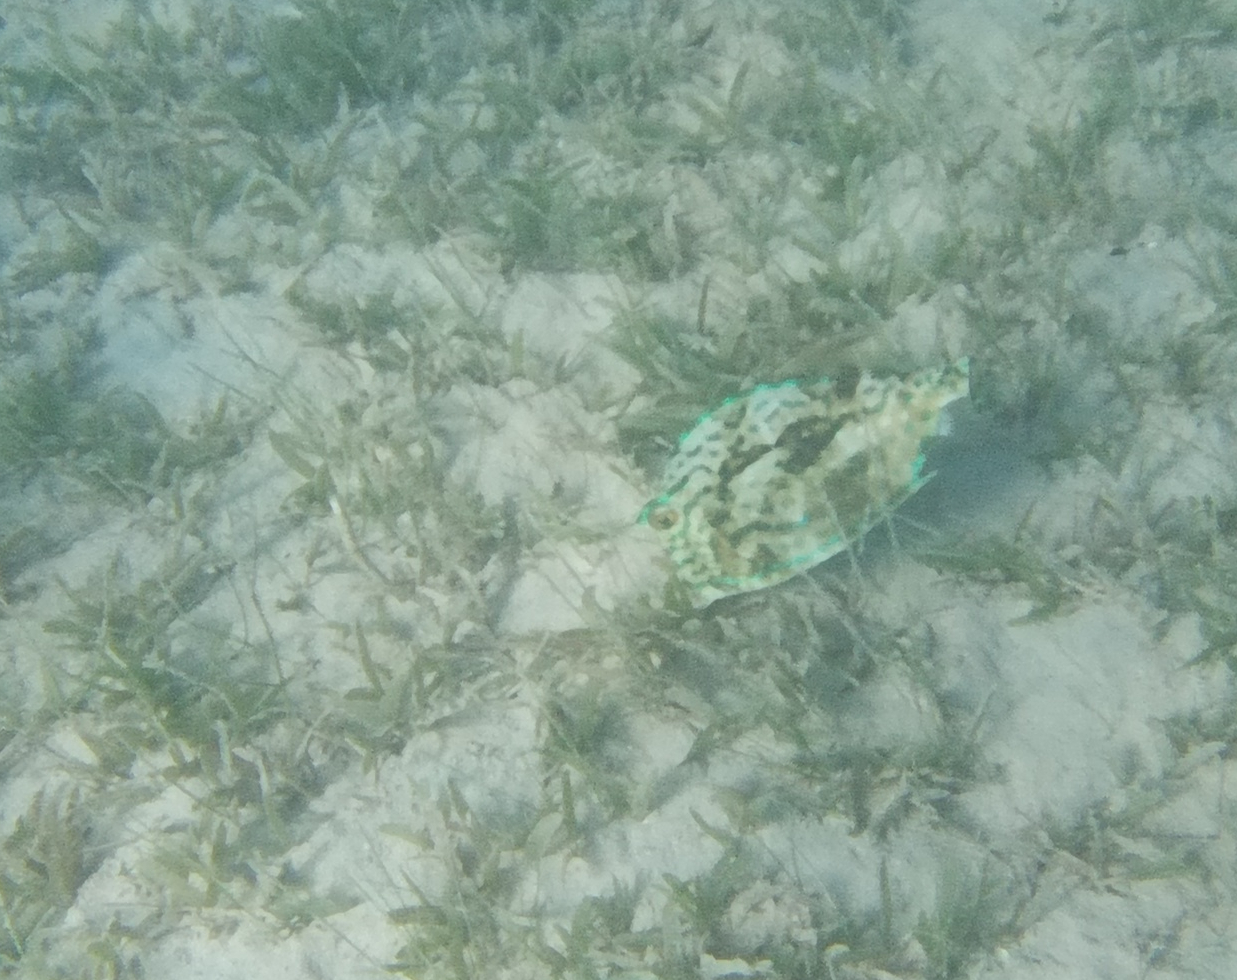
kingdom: Animalia
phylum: Chordata
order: Tetraodontiformes
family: Ostraciidae
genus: Acanthostracion
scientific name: Acanthostracion quadricornis
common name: Scrawled cowfish
